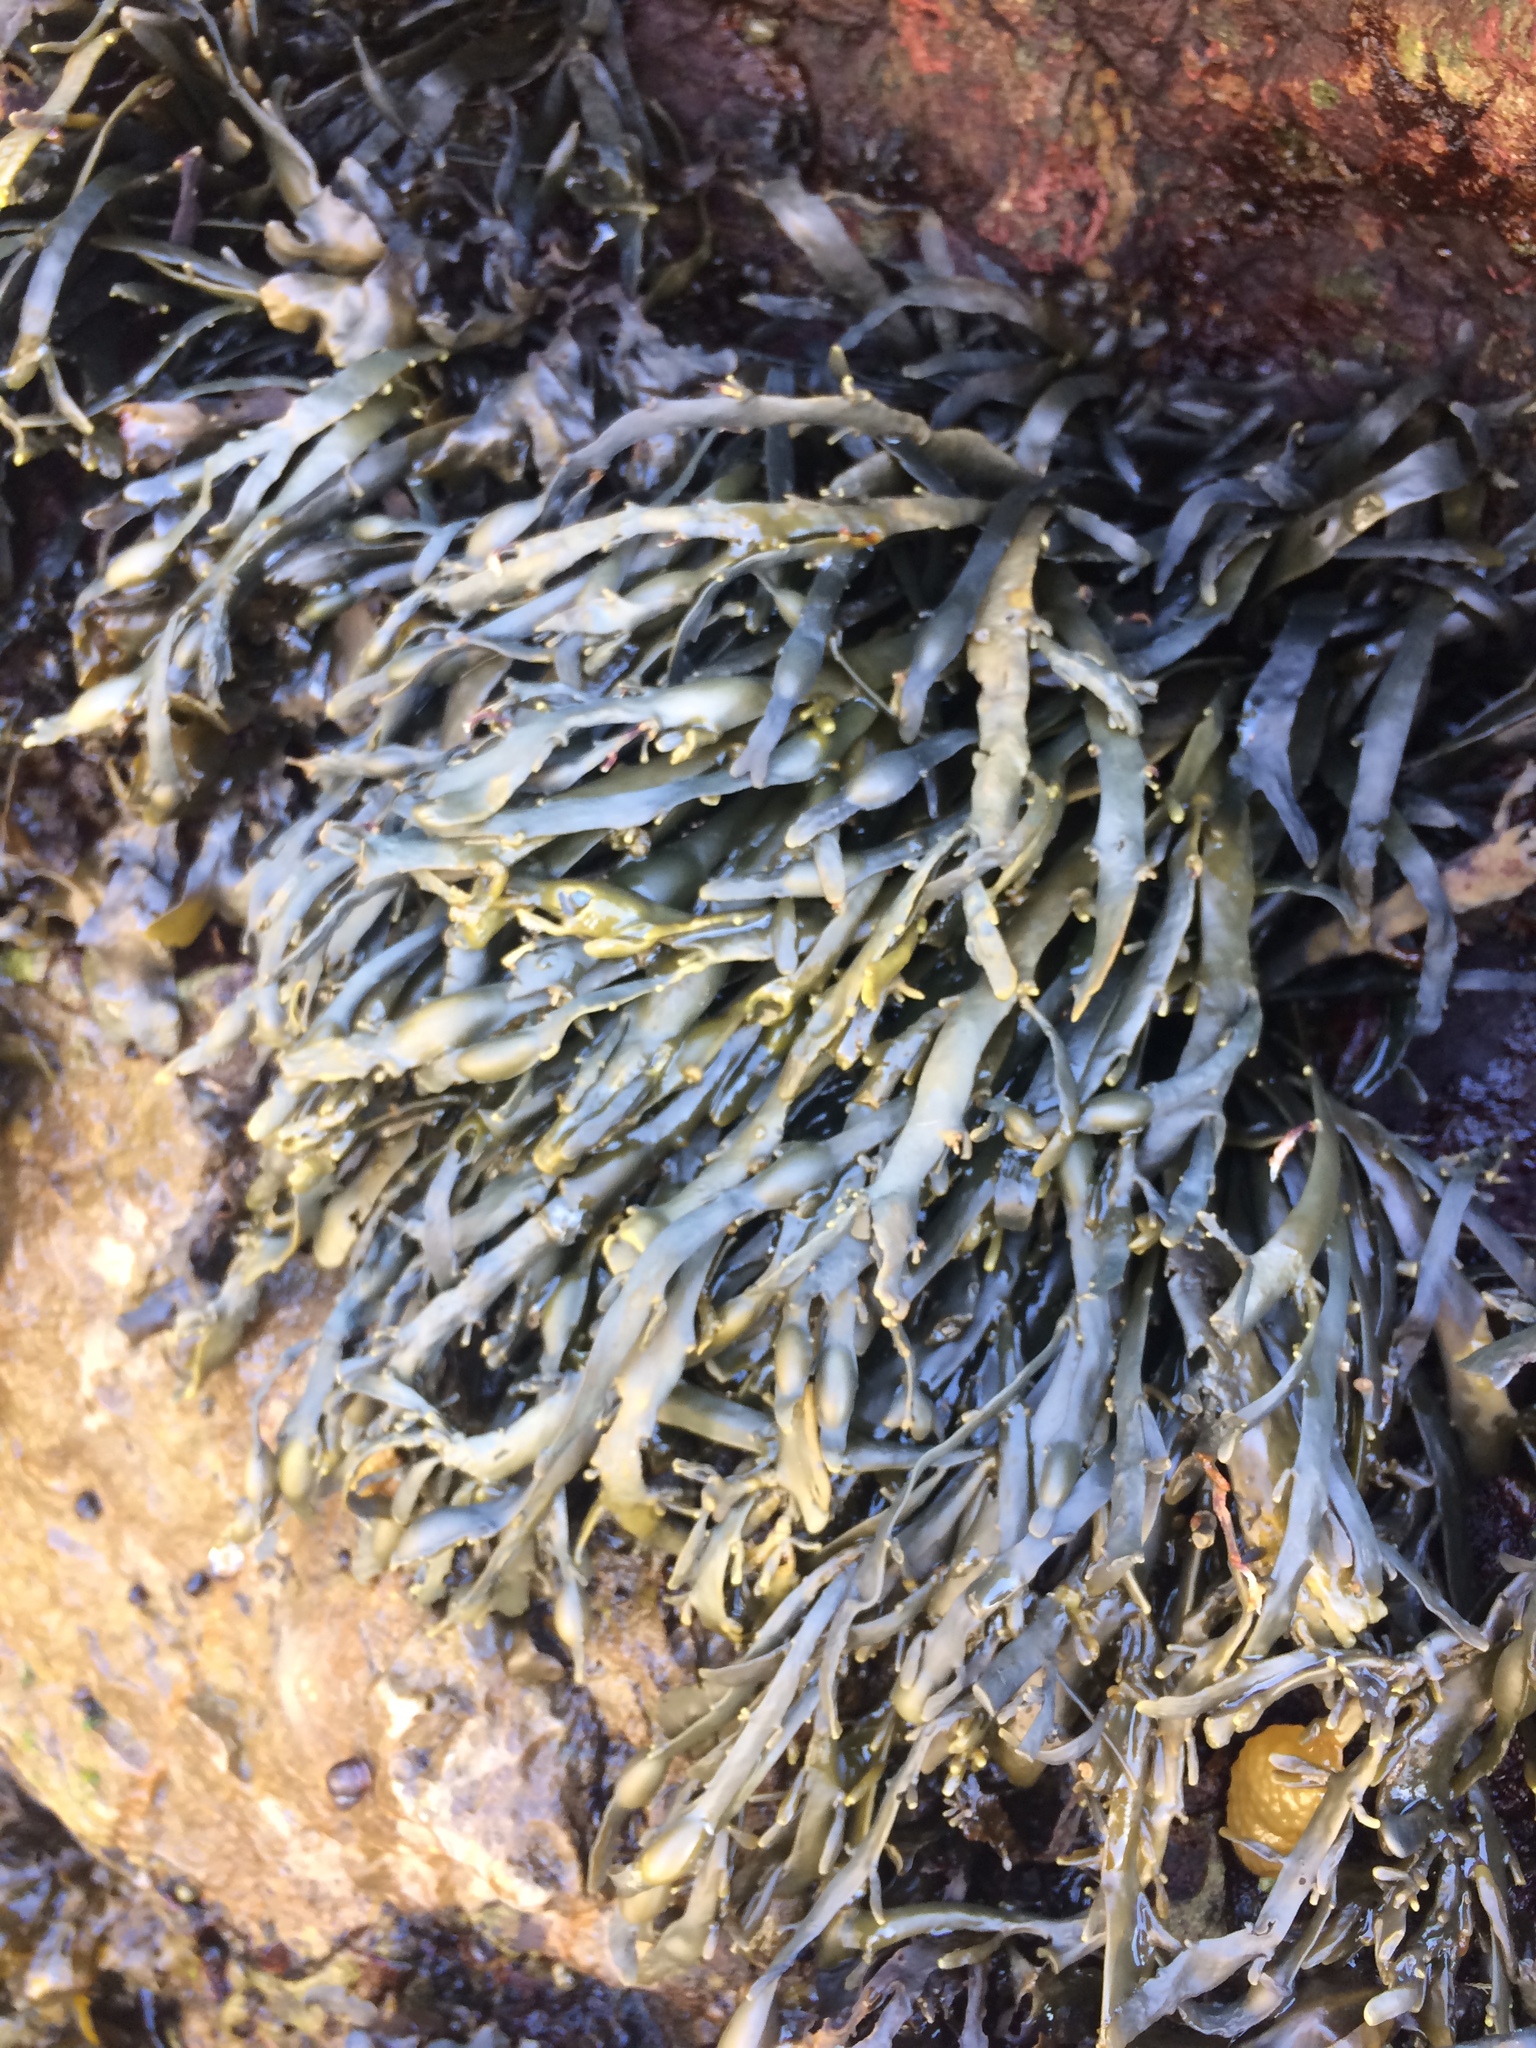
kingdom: Chromista
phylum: Ochrophyta
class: Phaeophyceae
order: Fucales
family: Fucaceae
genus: Ascophyllum
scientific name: Ascophyllum nodosum
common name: Knotted wrack
